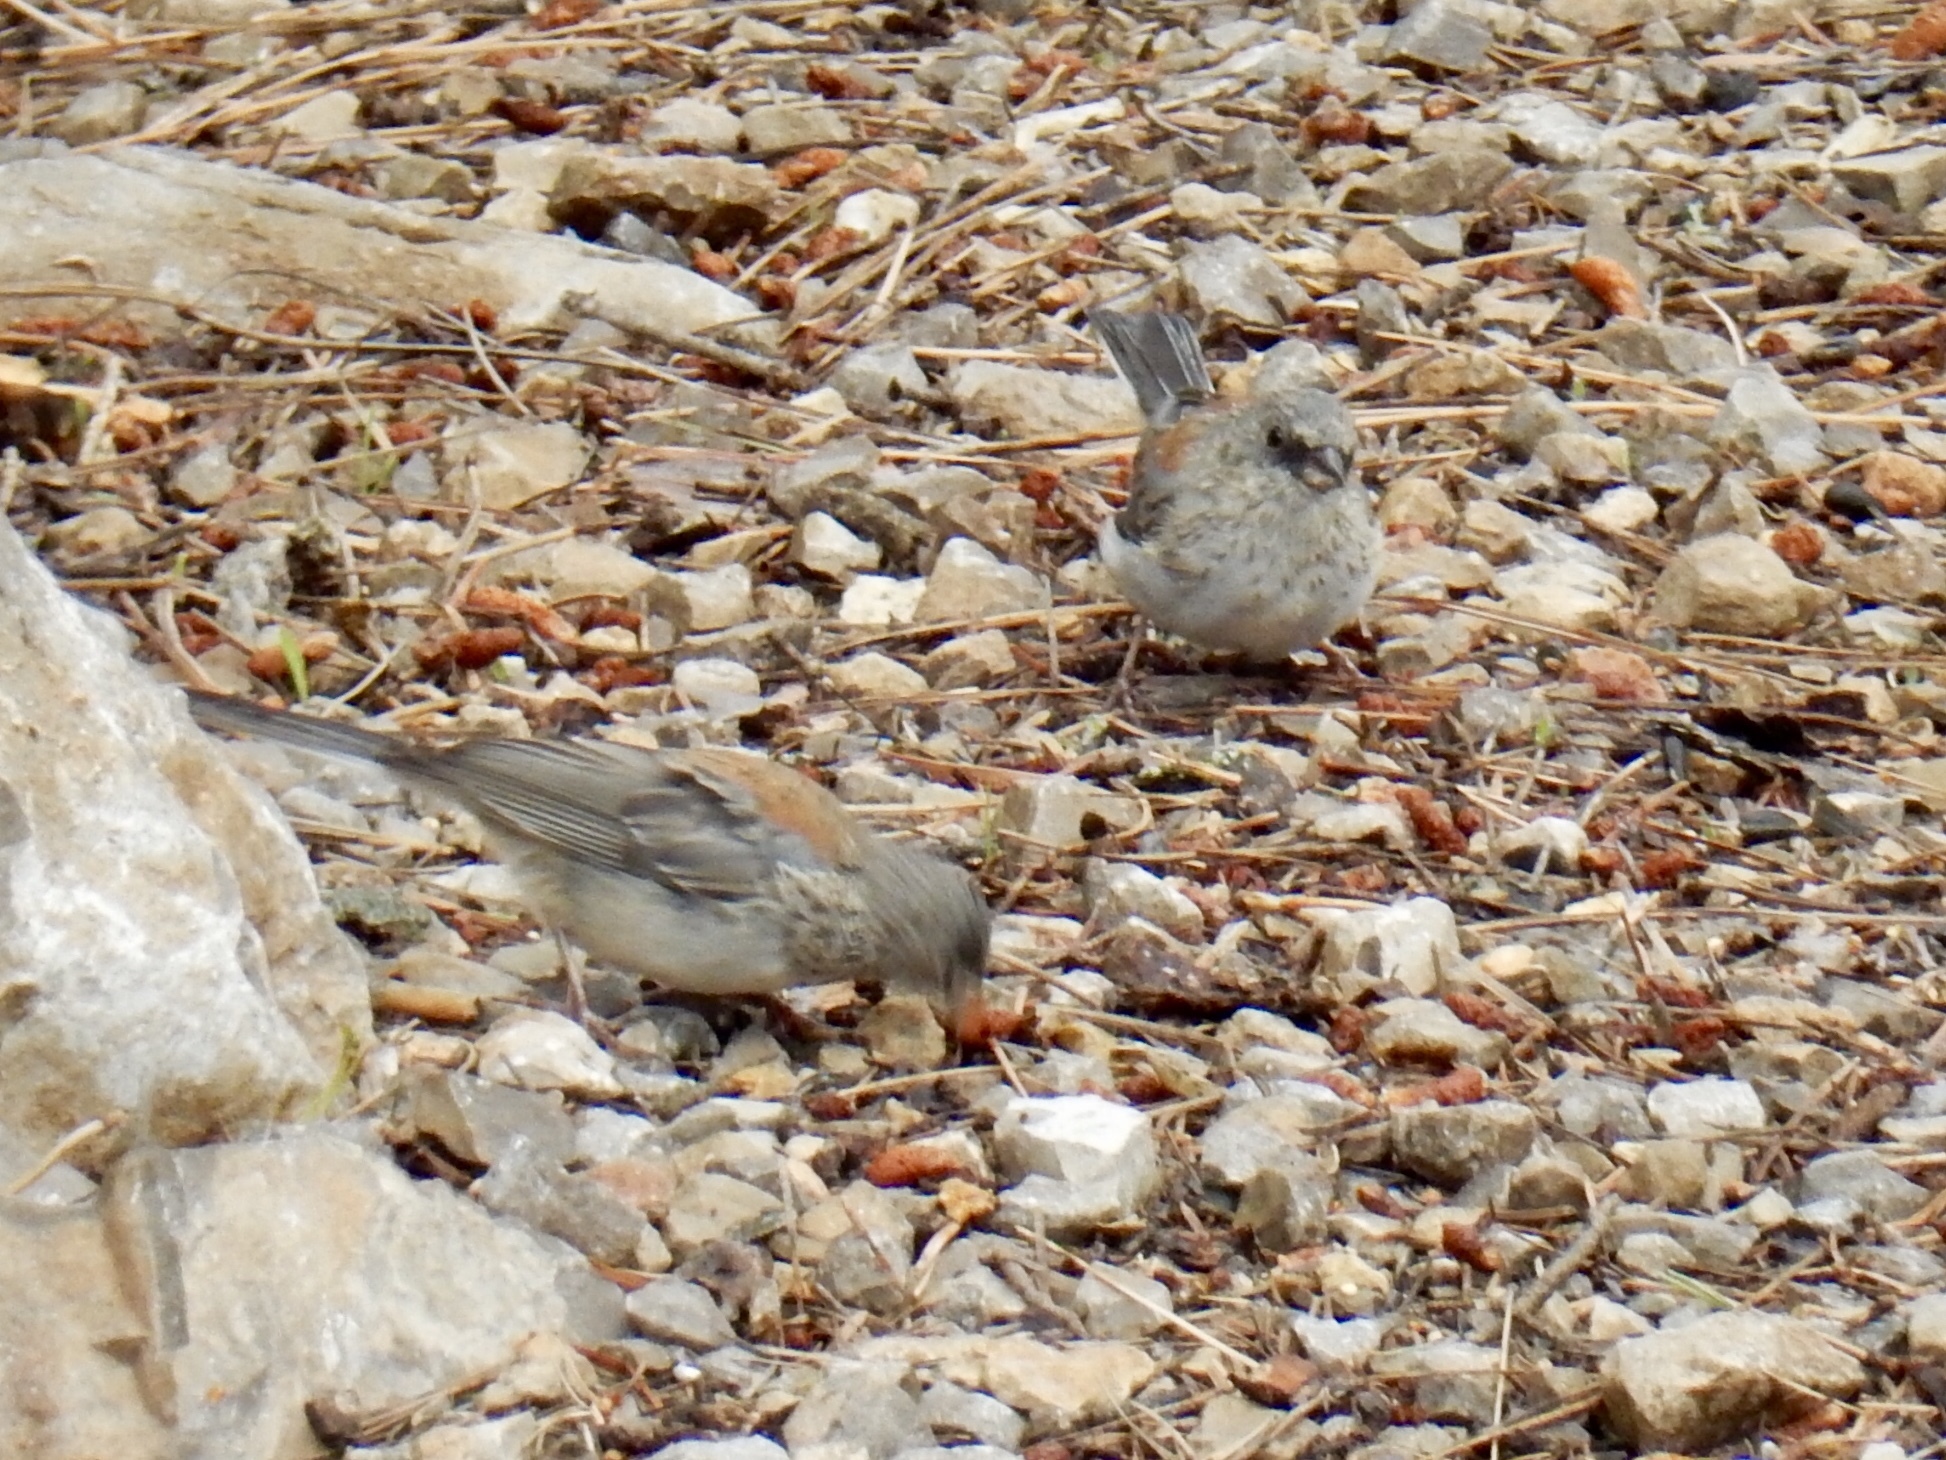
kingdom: Animalia
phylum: Chordata
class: Aves
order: Passeriformes
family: Passerellidae
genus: Junco
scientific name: Junco hyemalis
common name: Dark-eyed junco
